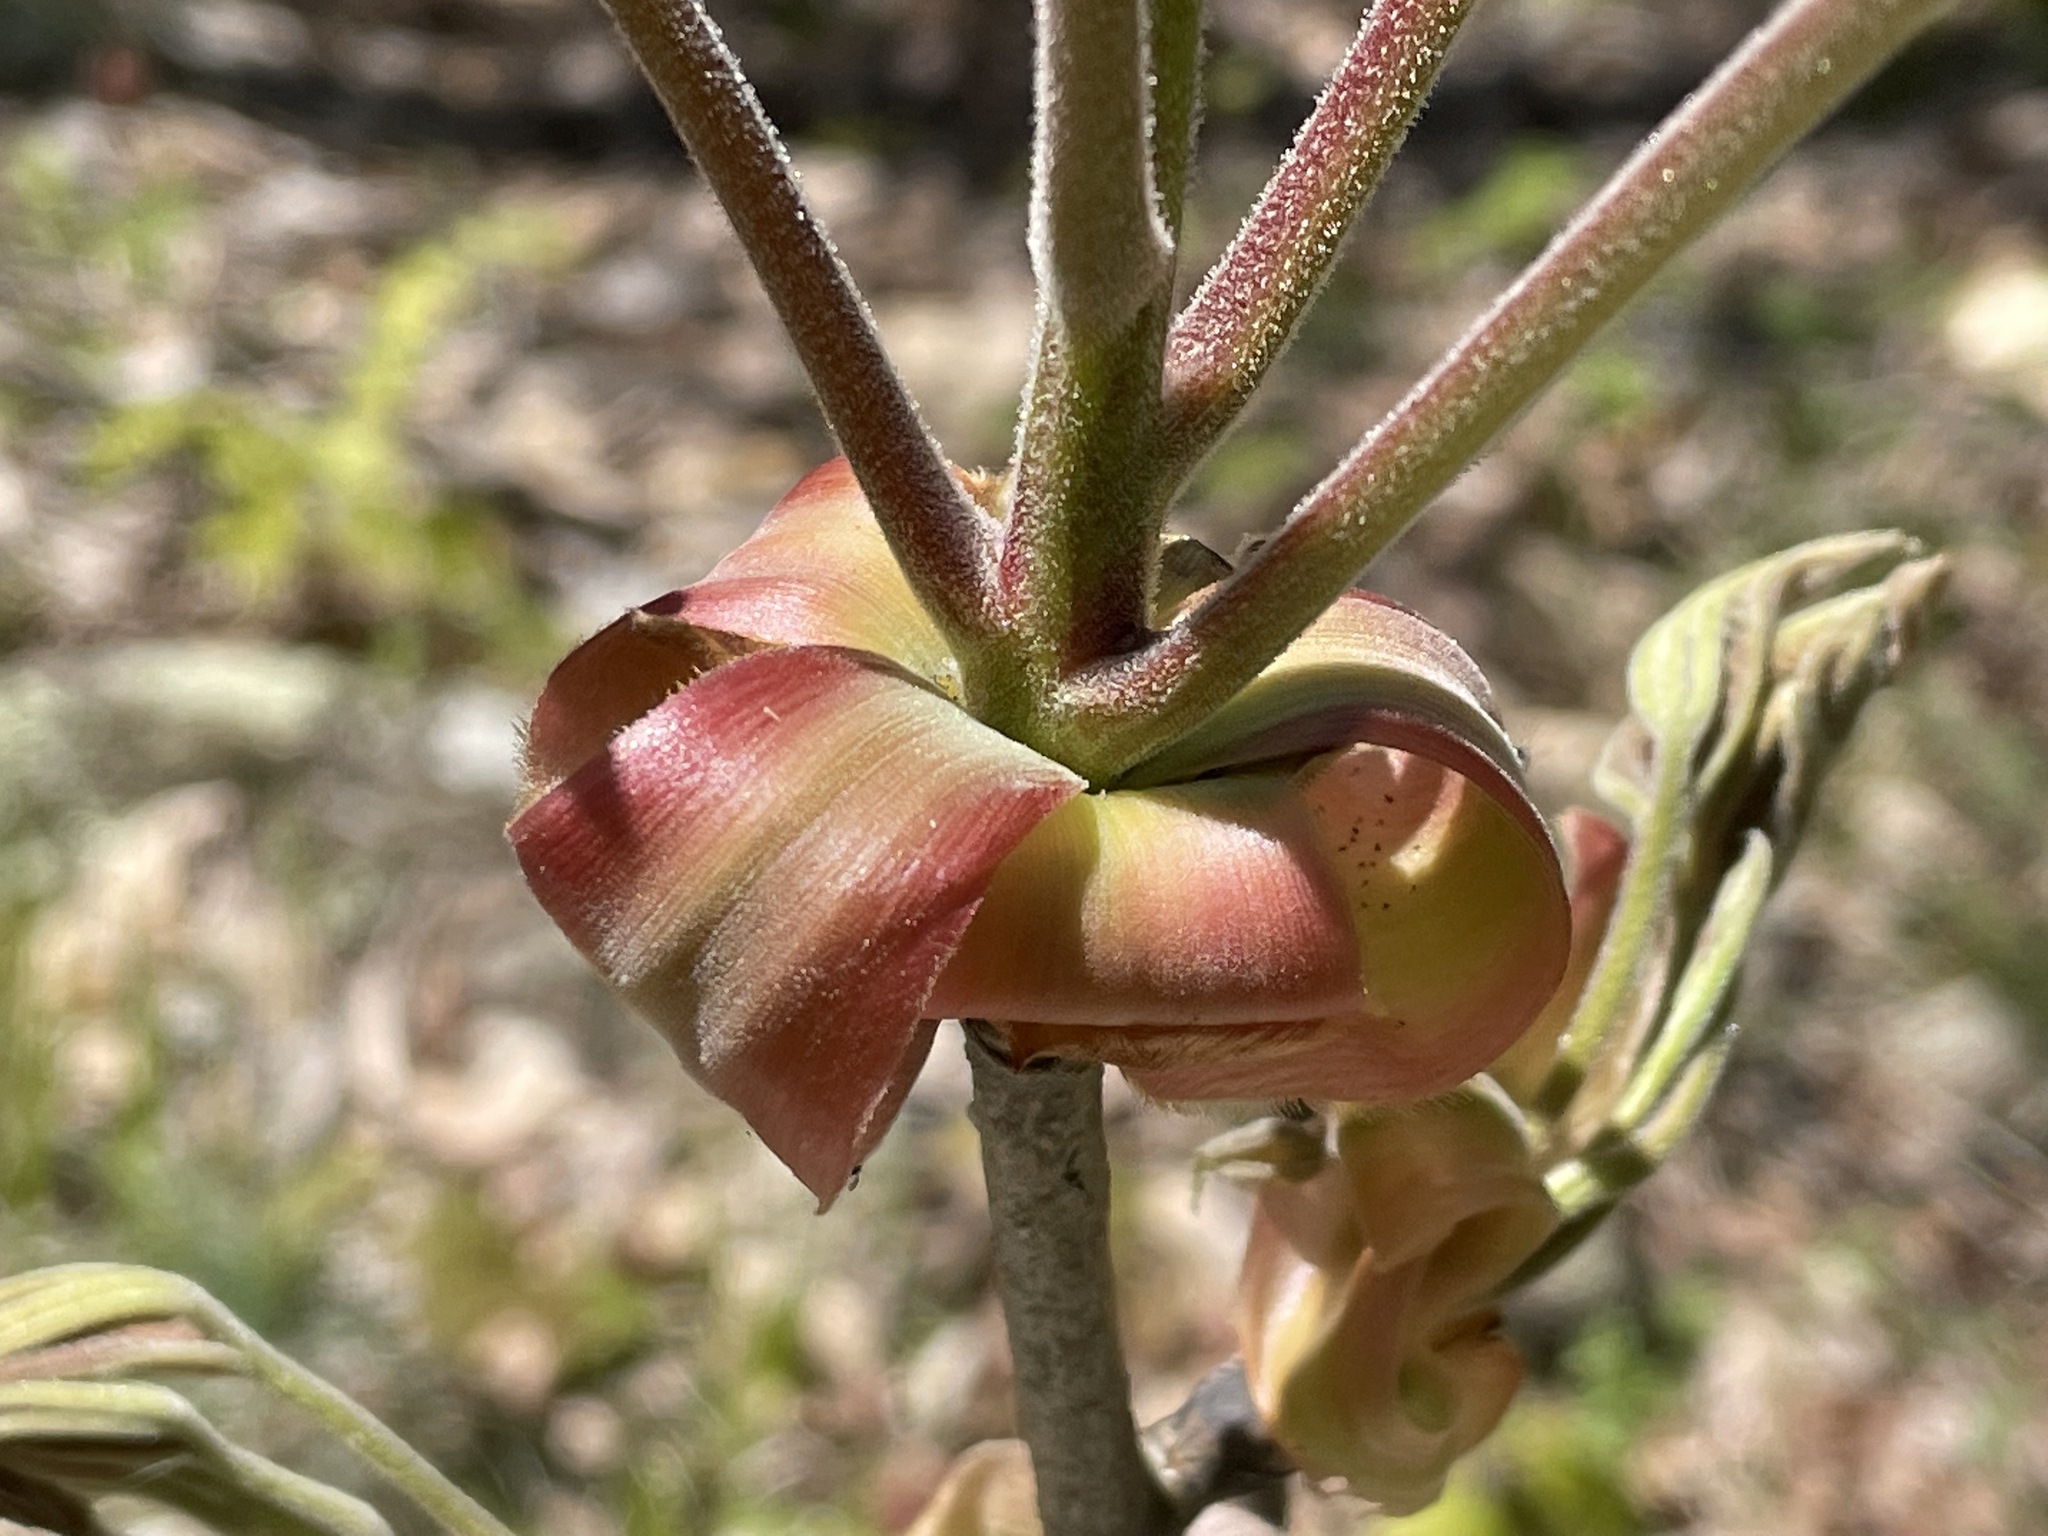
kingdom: Plantae
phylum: Tracheophyta
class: Magnoliopsida
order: Fagales
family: Juglandaceae
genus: Carya
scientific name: Carya ovata
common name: Shagbark hickory
